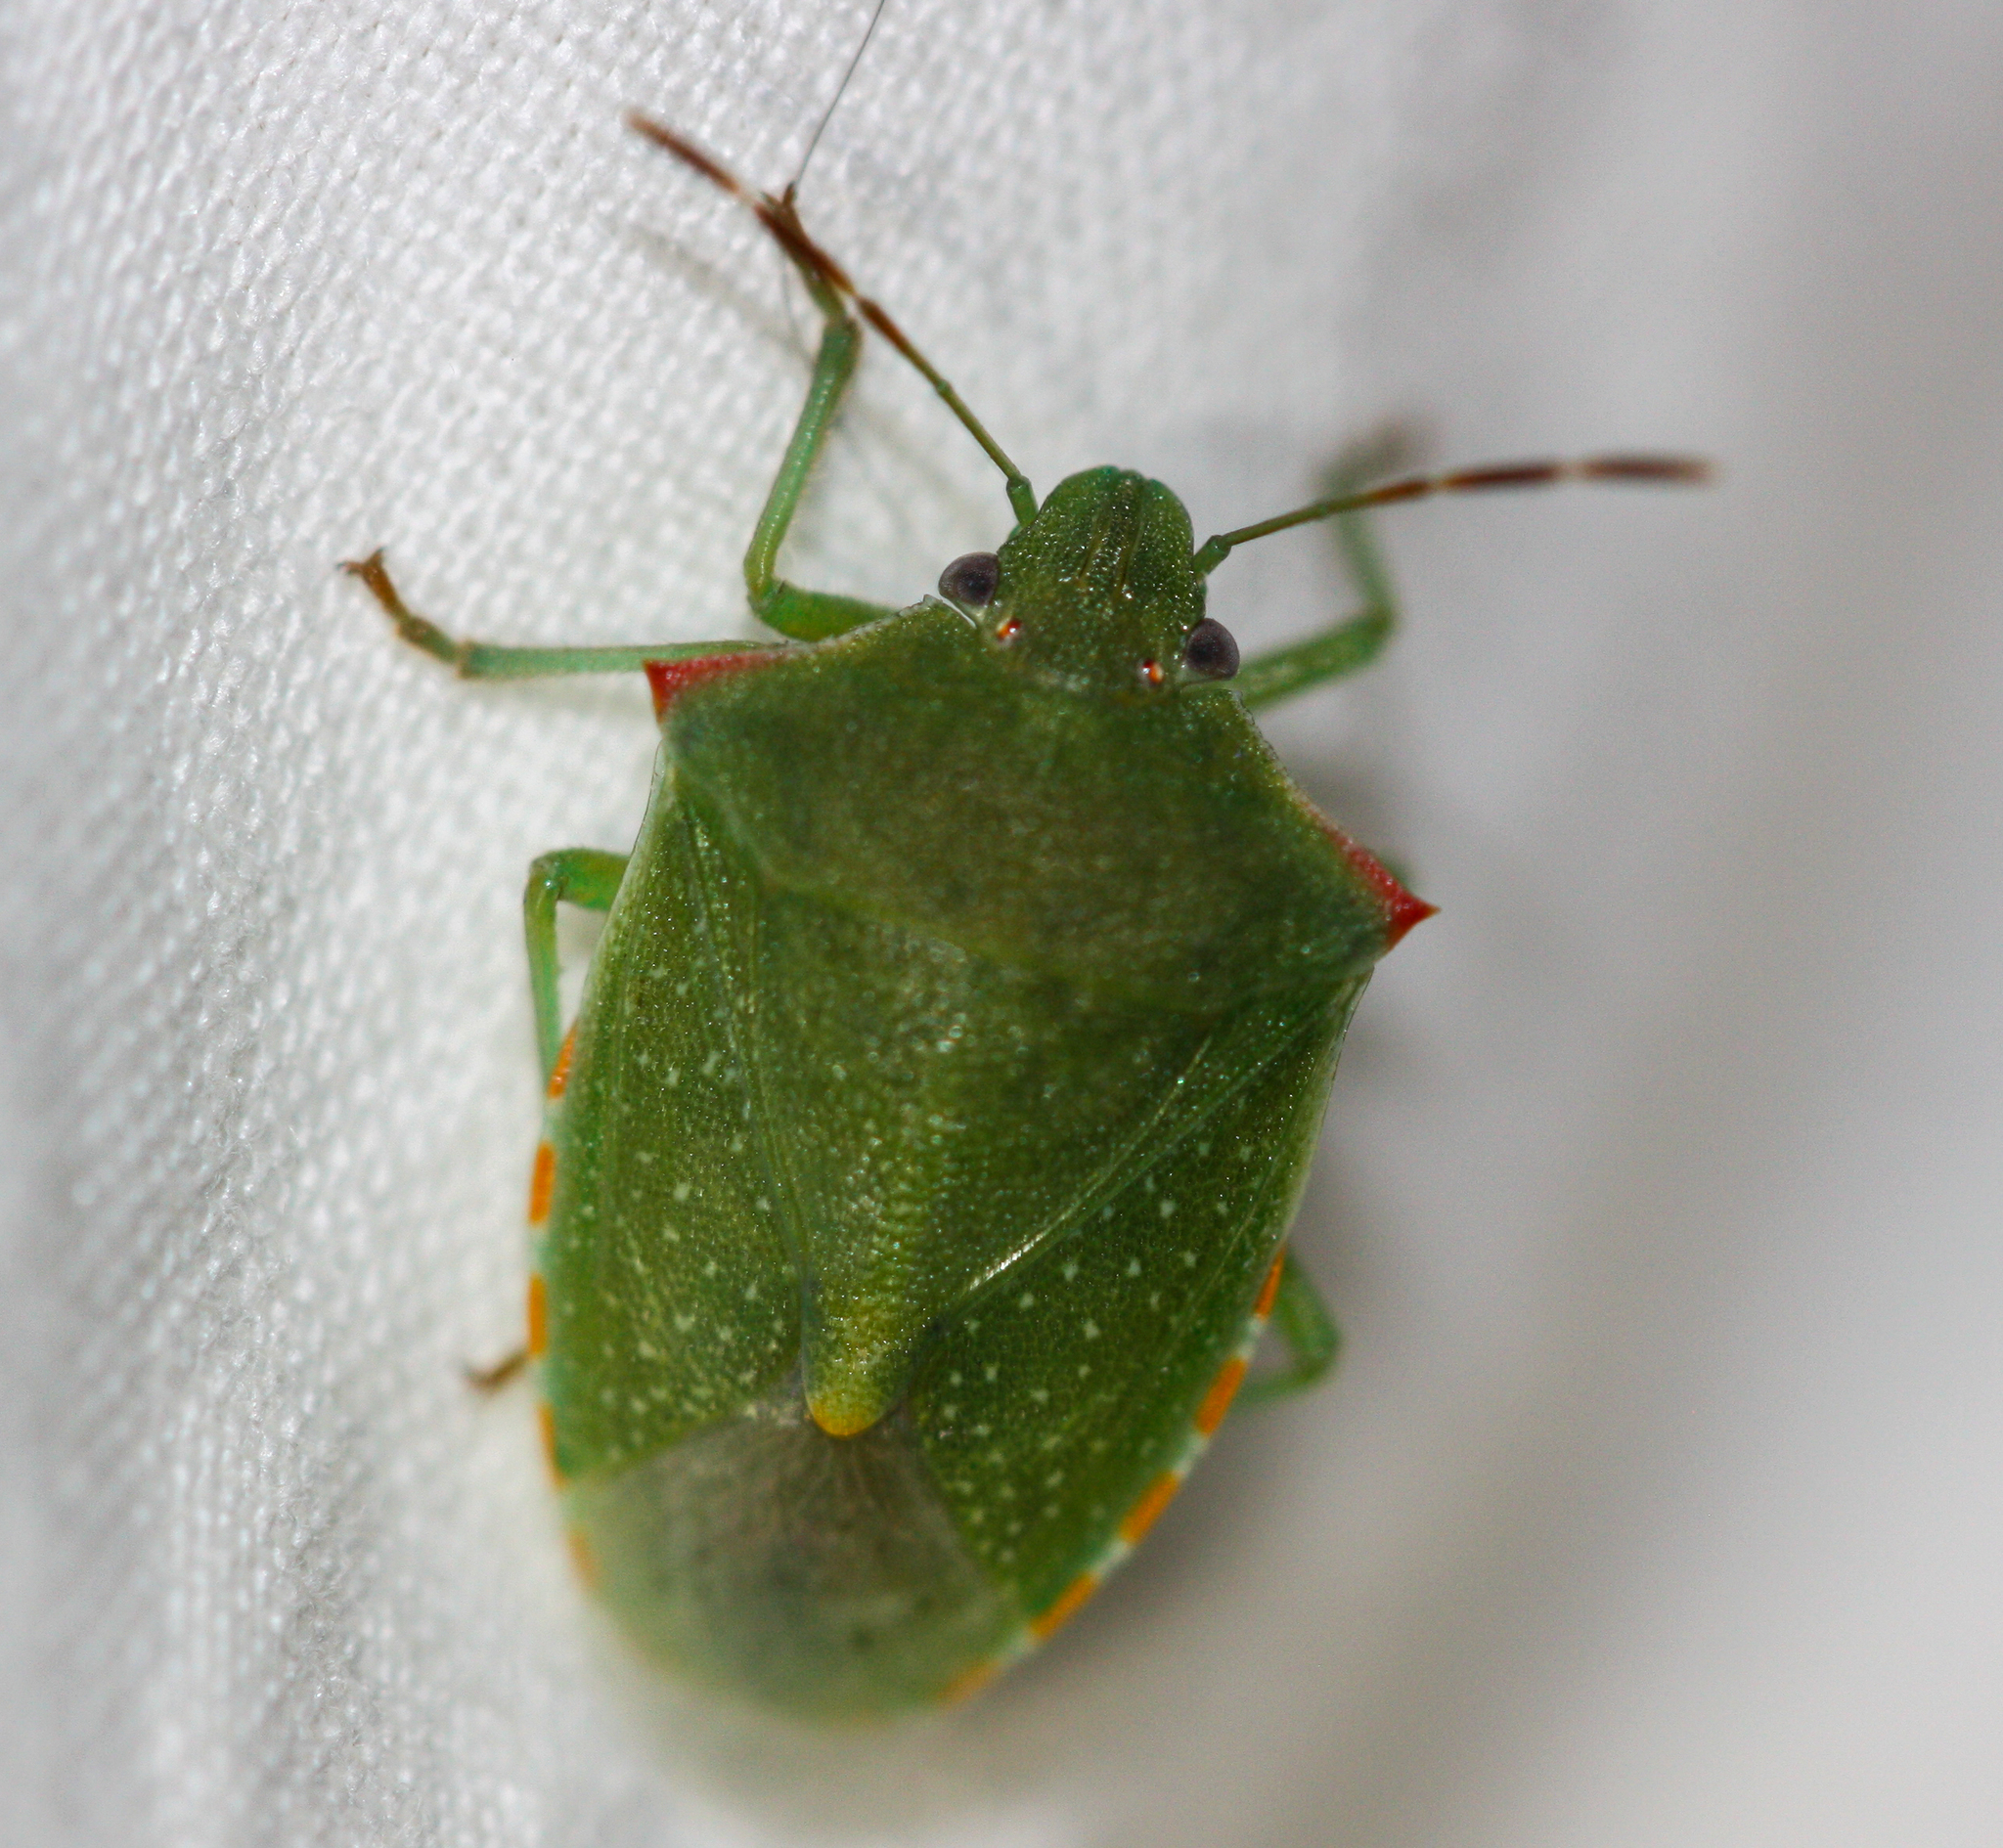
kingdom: Animalia
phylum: Arthropoda
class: Insecta
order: Hemiptera
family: Pentatomidae
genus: Thyanta
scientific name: Thyanta accerra
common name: Stink bug
